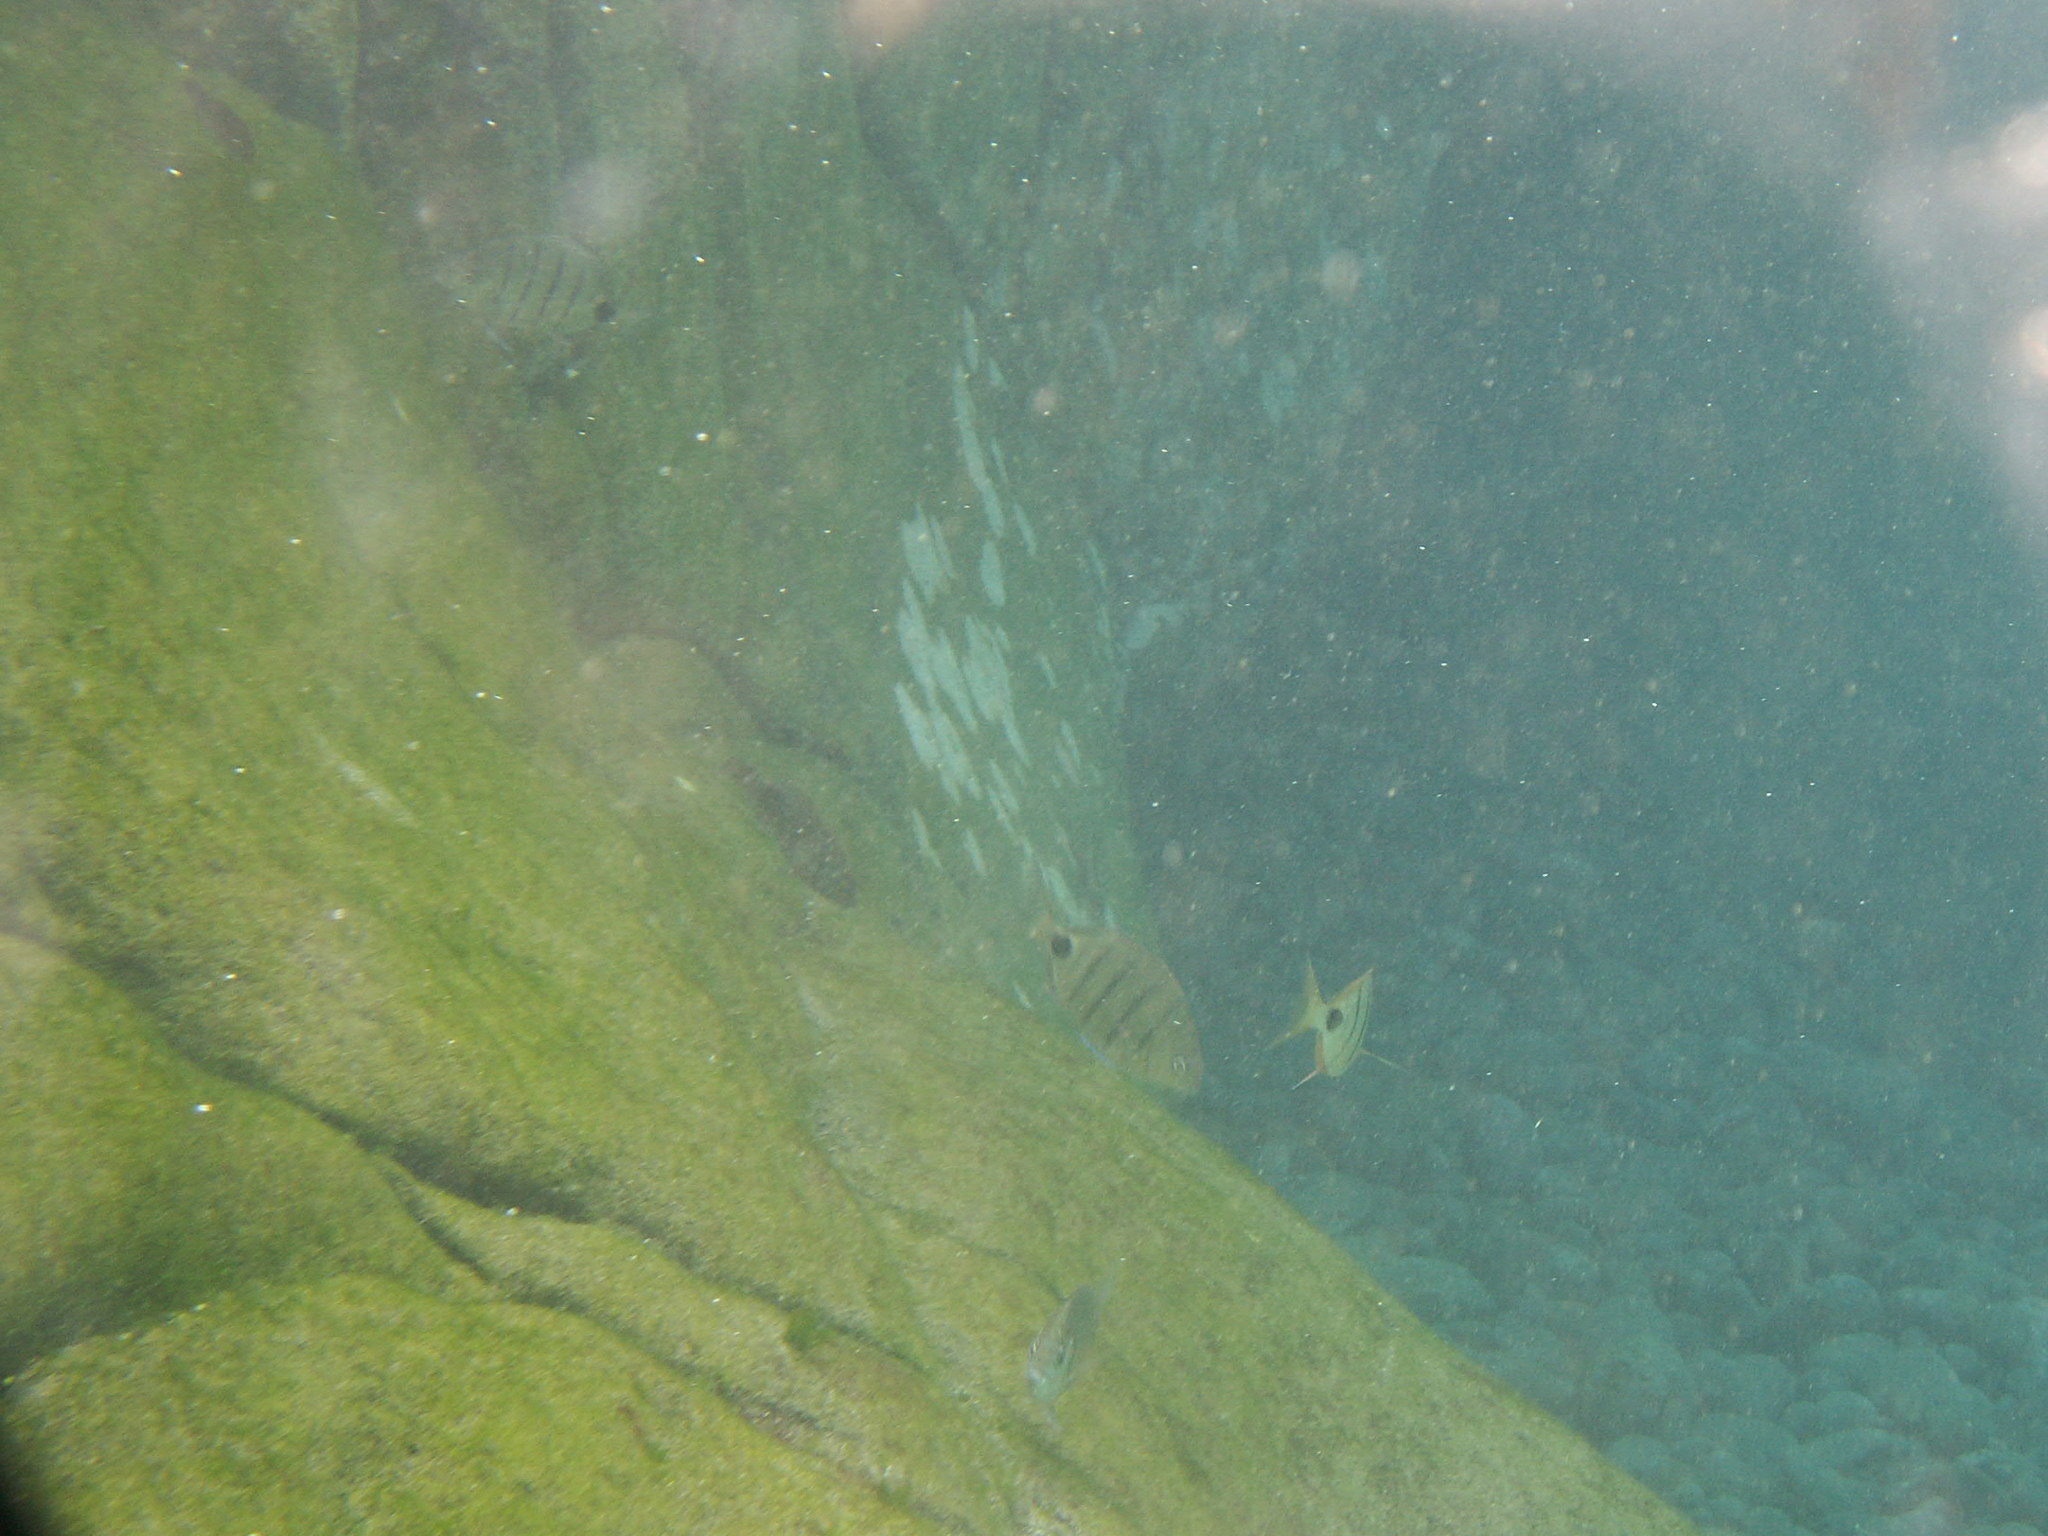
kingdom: Animalia
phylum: Chordata
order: Perciformes
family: Sparidae
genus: Diplodus
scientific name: Diplodus lineatus
